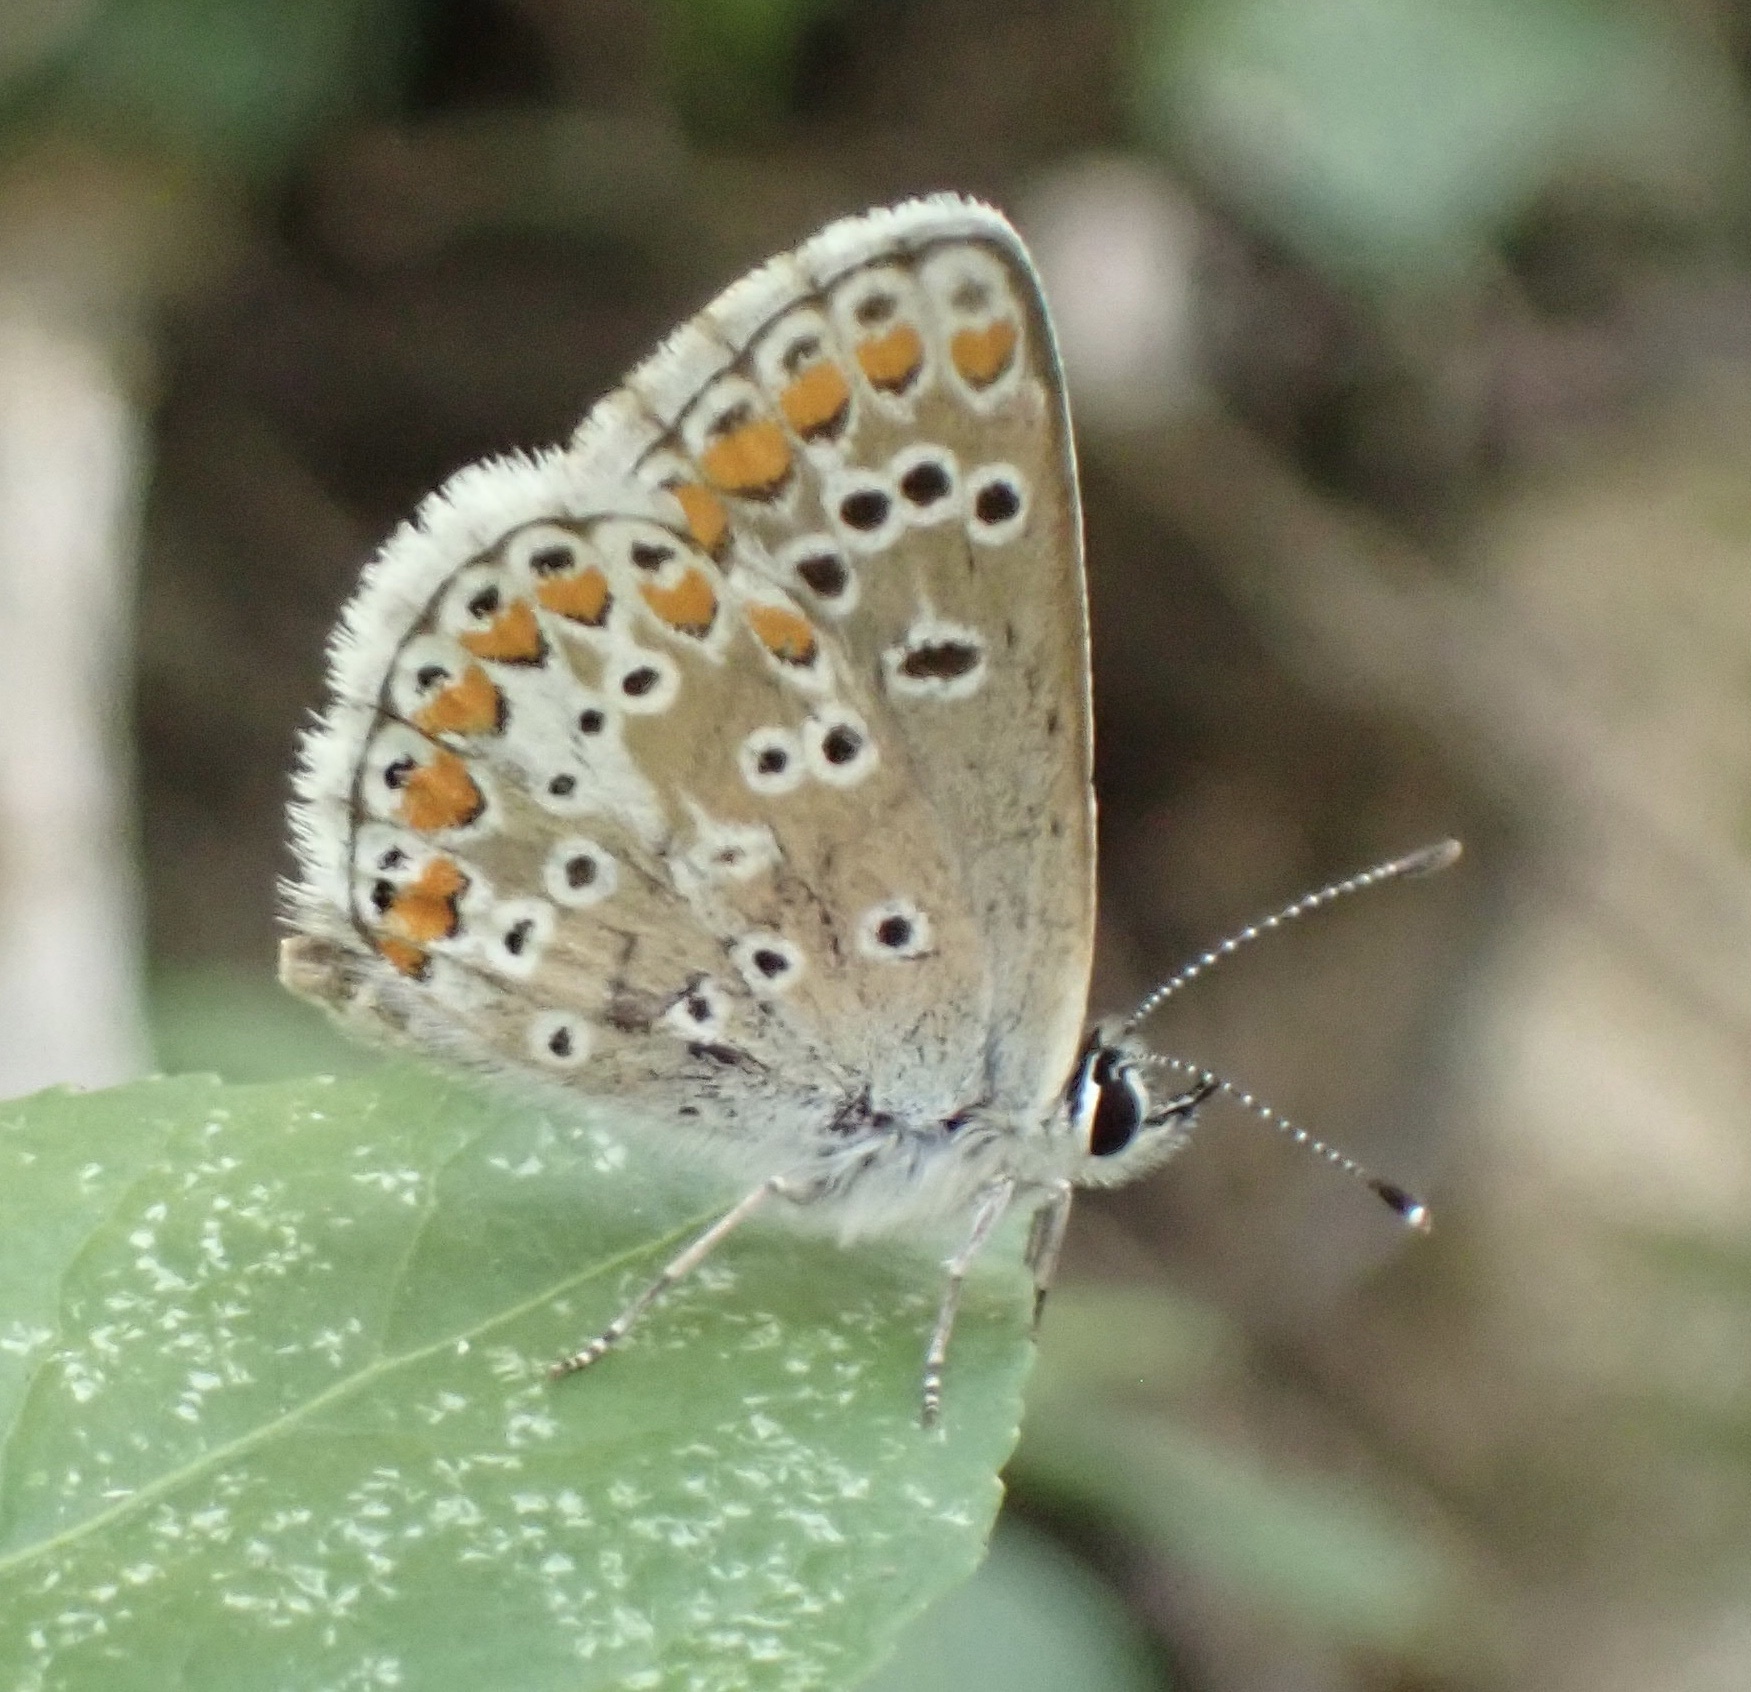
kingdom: Animalia
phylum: Arthropoda
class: Insecta
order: Lepidoptera
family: Lycaenidae
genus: Aricia
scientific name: Aricia agestis
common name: Brown argus
